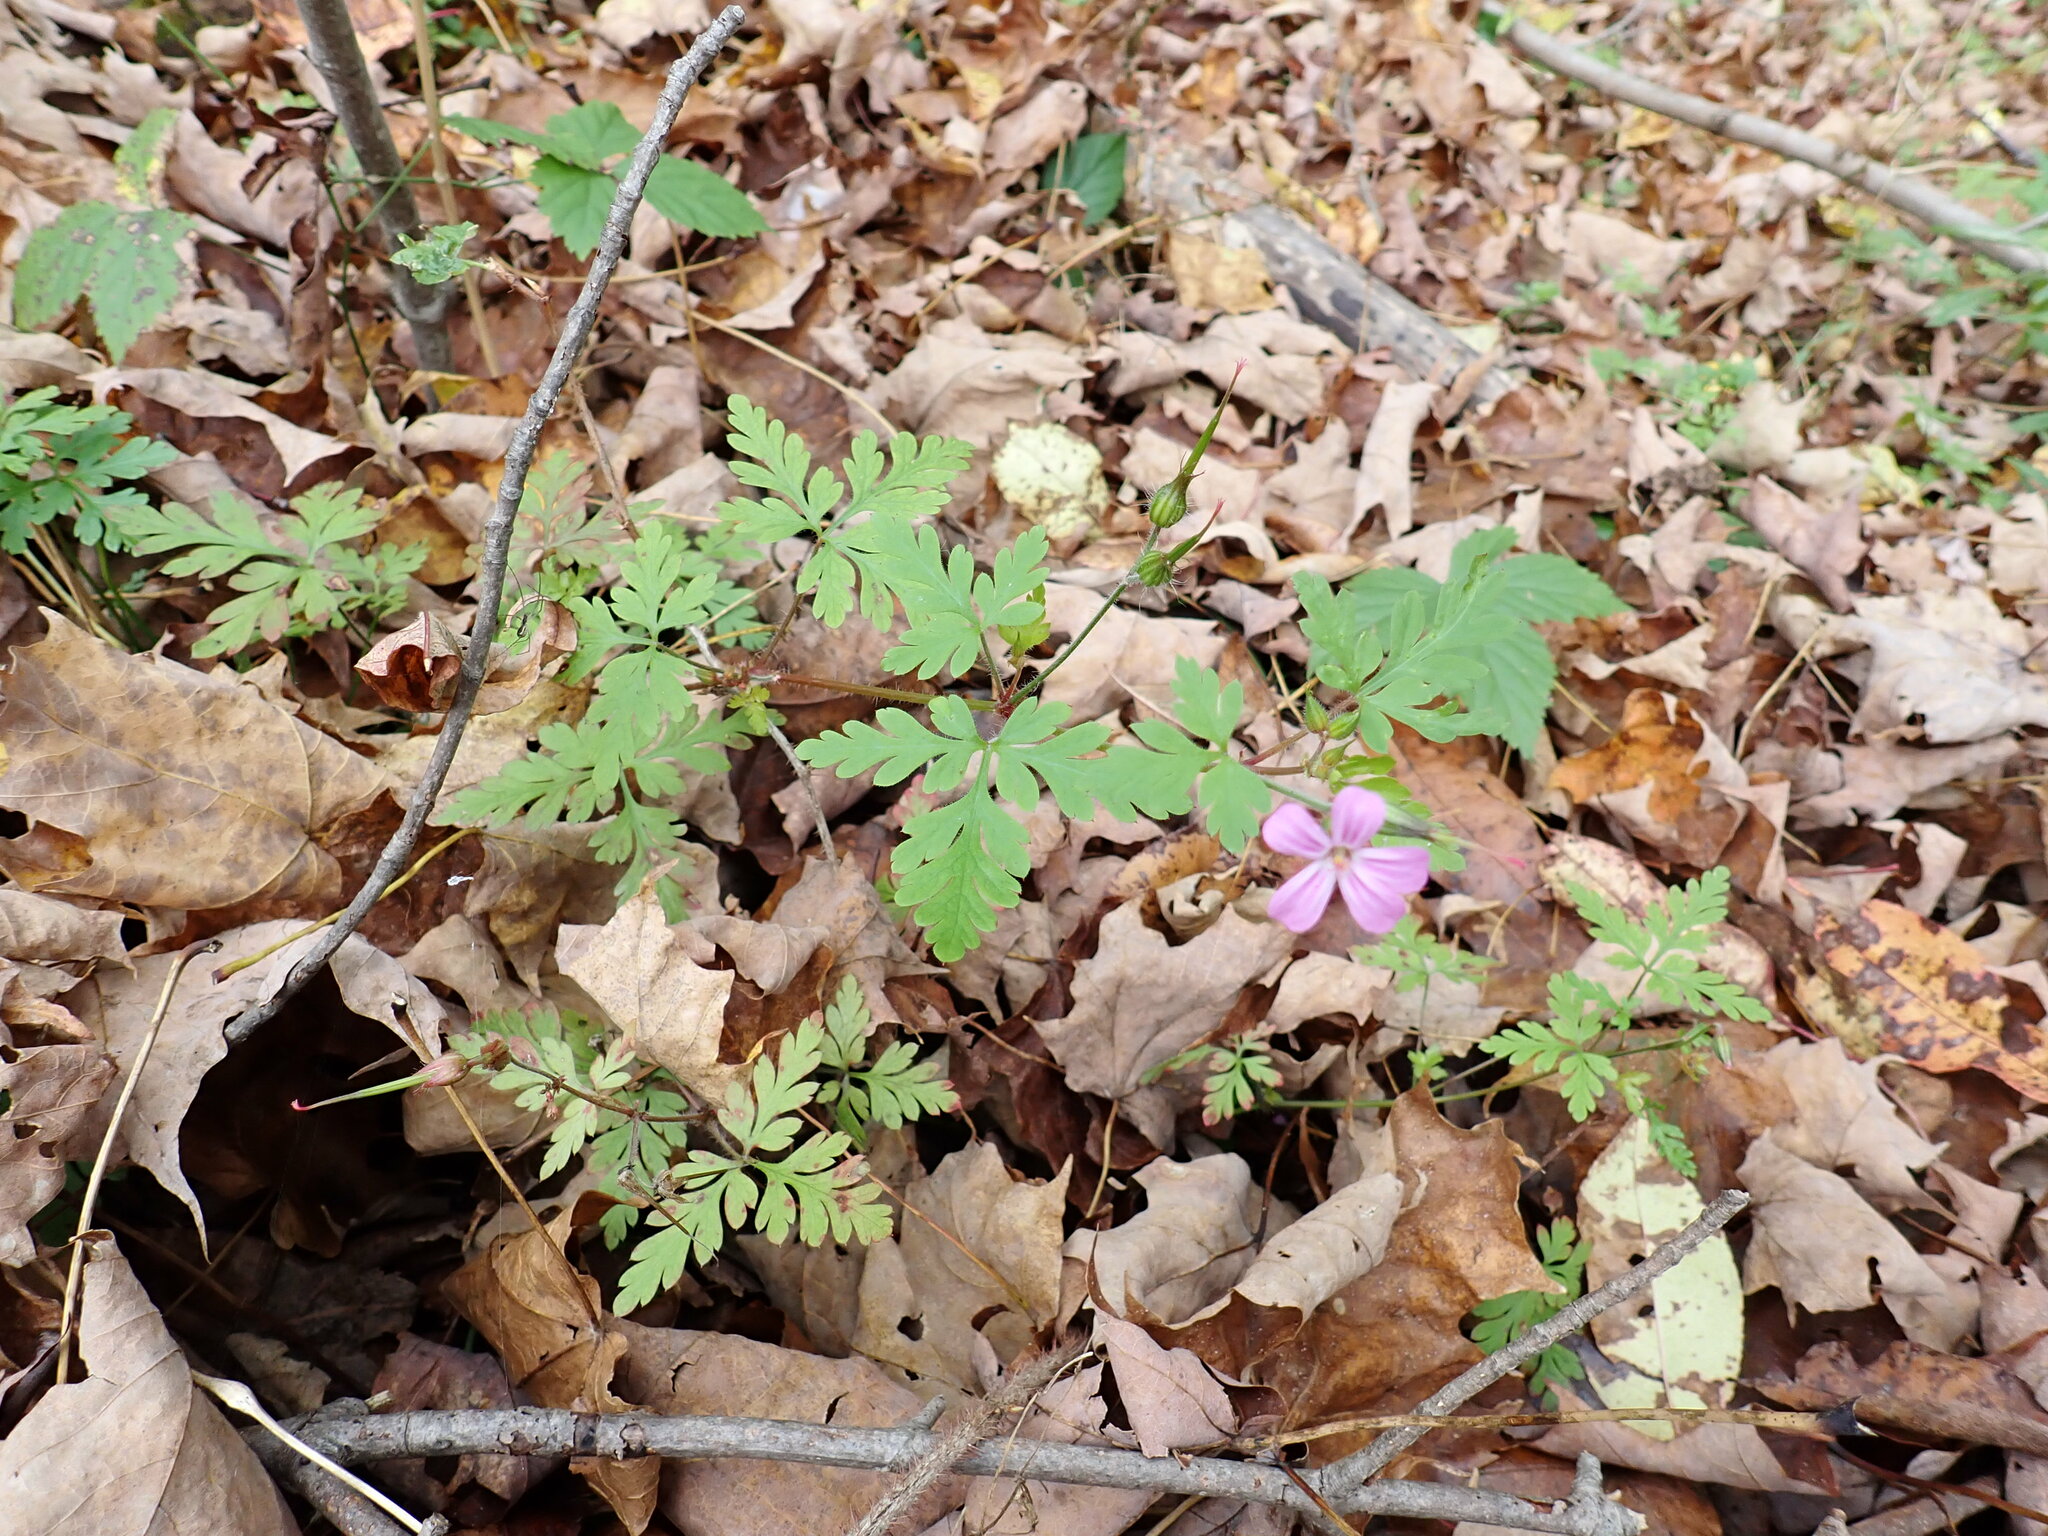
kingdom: Plantae
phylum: Tracheophyta
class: Magnoliopsida
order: Geraniales
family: Geraniaceae
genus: Geranium
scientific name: Geranium robertianum
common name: Herb-robert
